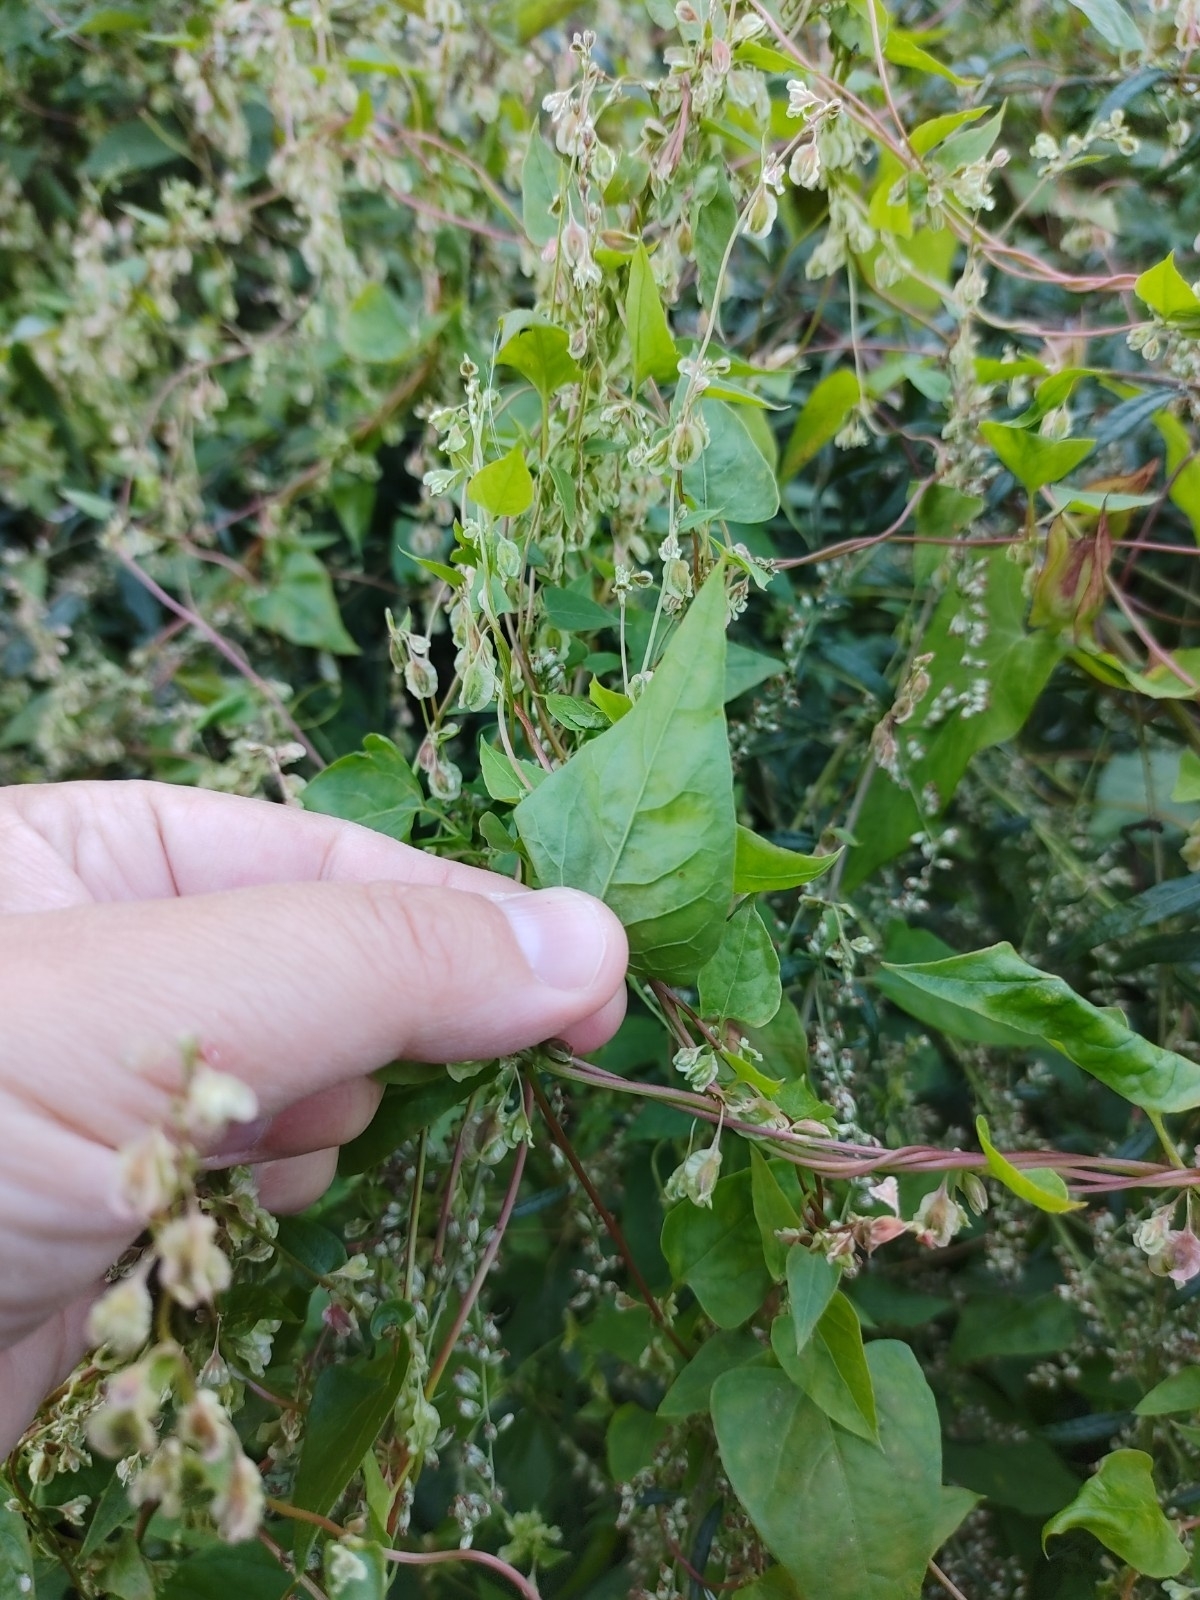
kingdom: Plantae
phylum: Tracheophyta
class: Magnoliopsida
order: Caryophyllales
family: Polygonaceae
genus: Fallopia
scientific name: Fallopia dumetorum
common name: Copse-bindweed
